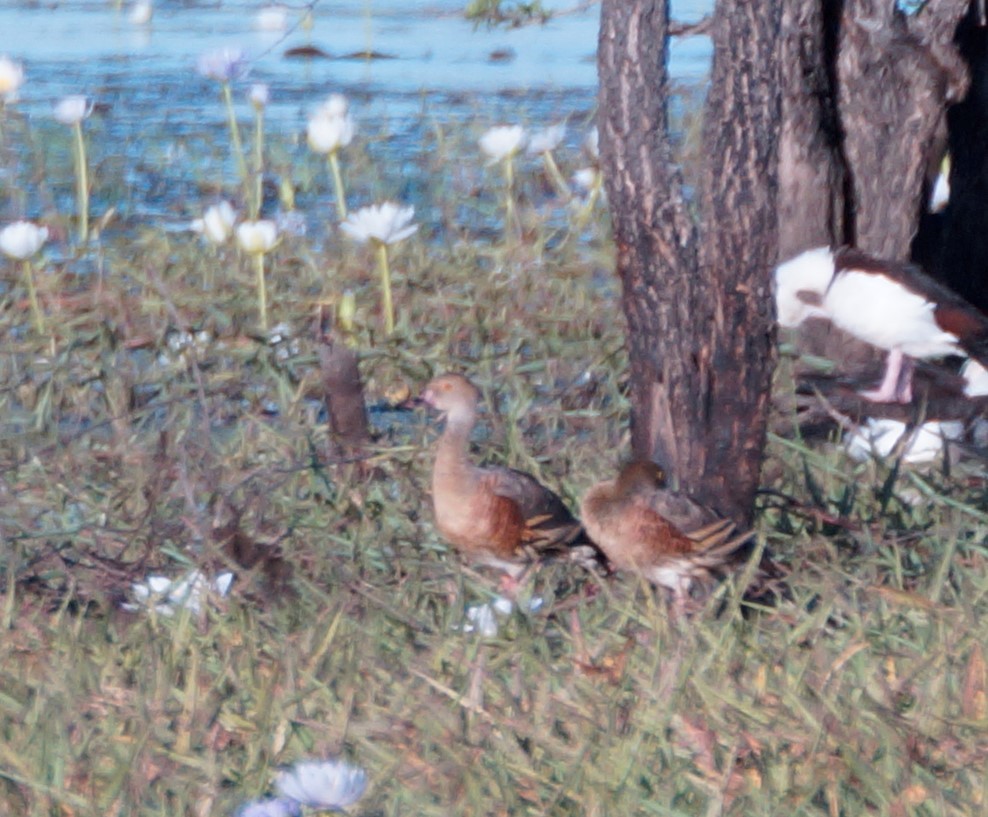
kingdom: Animalia
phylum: Chordata
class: Aves
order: Anseriformes
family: Anatidae
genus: Dendrocygna
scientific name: Dendrocygna eytoni
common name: Plumed whistling-duck
